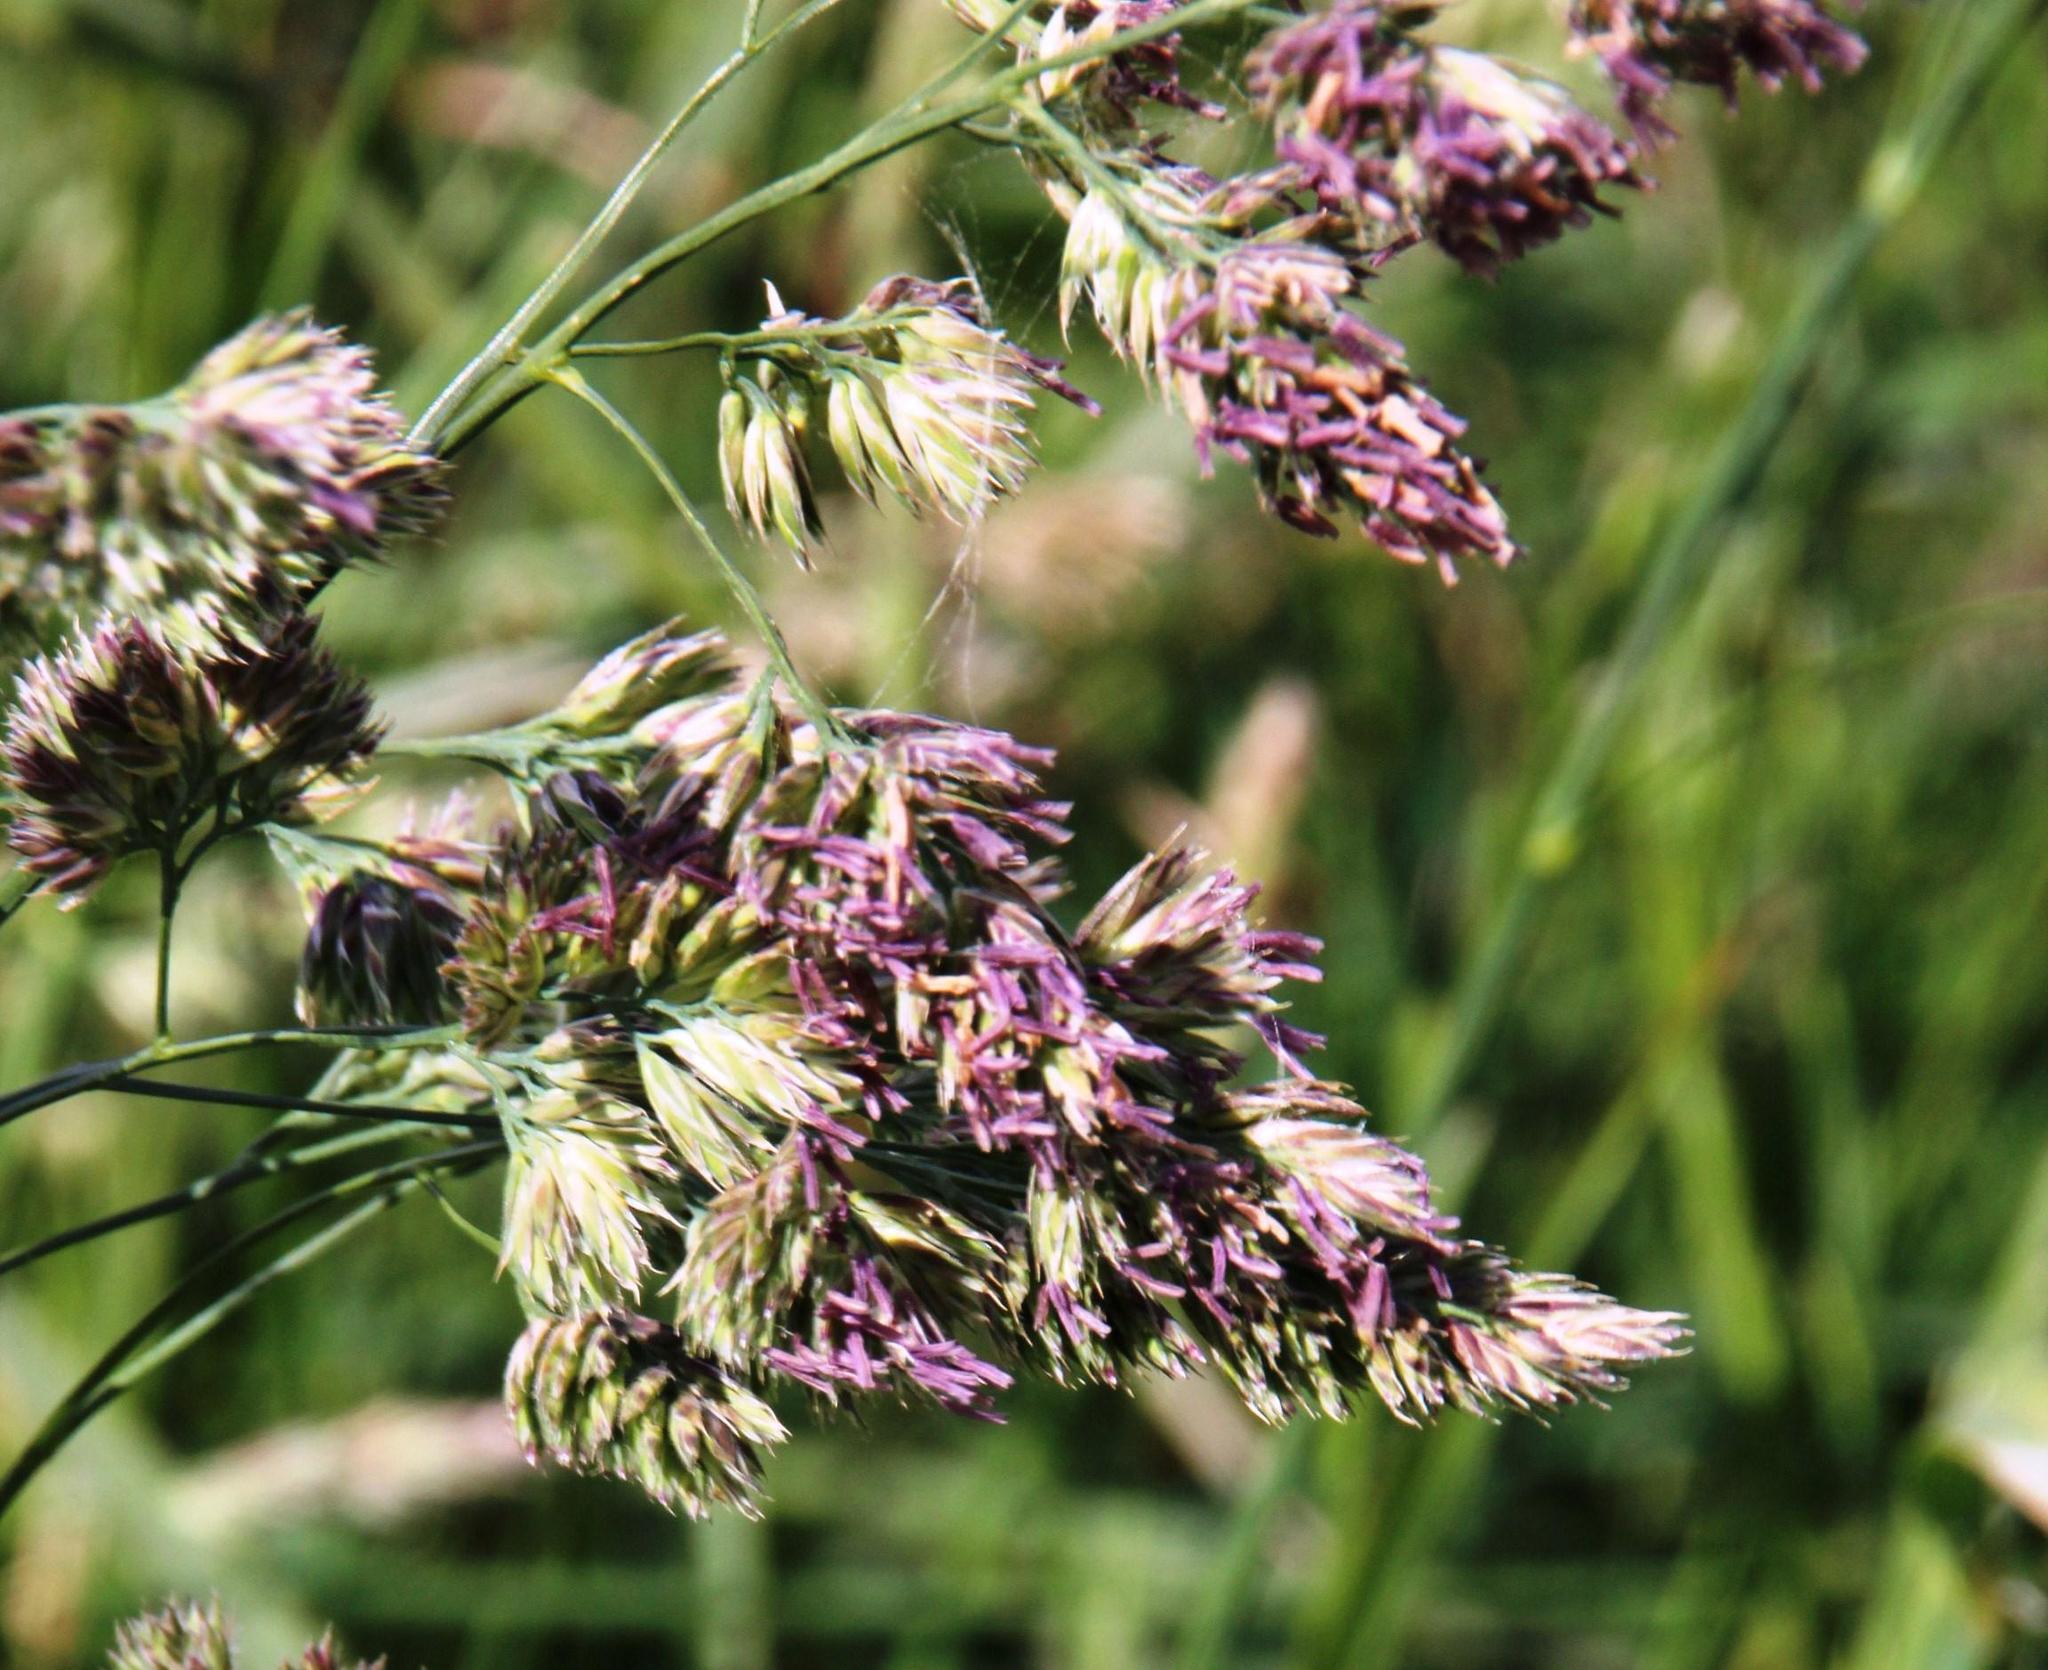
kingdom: Plantae
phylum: Tracheophyta
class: Liliopsida
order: Poales
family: Poaceae
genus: Dactylis
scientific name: Dactylis glomerata
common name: Orchardgrass
